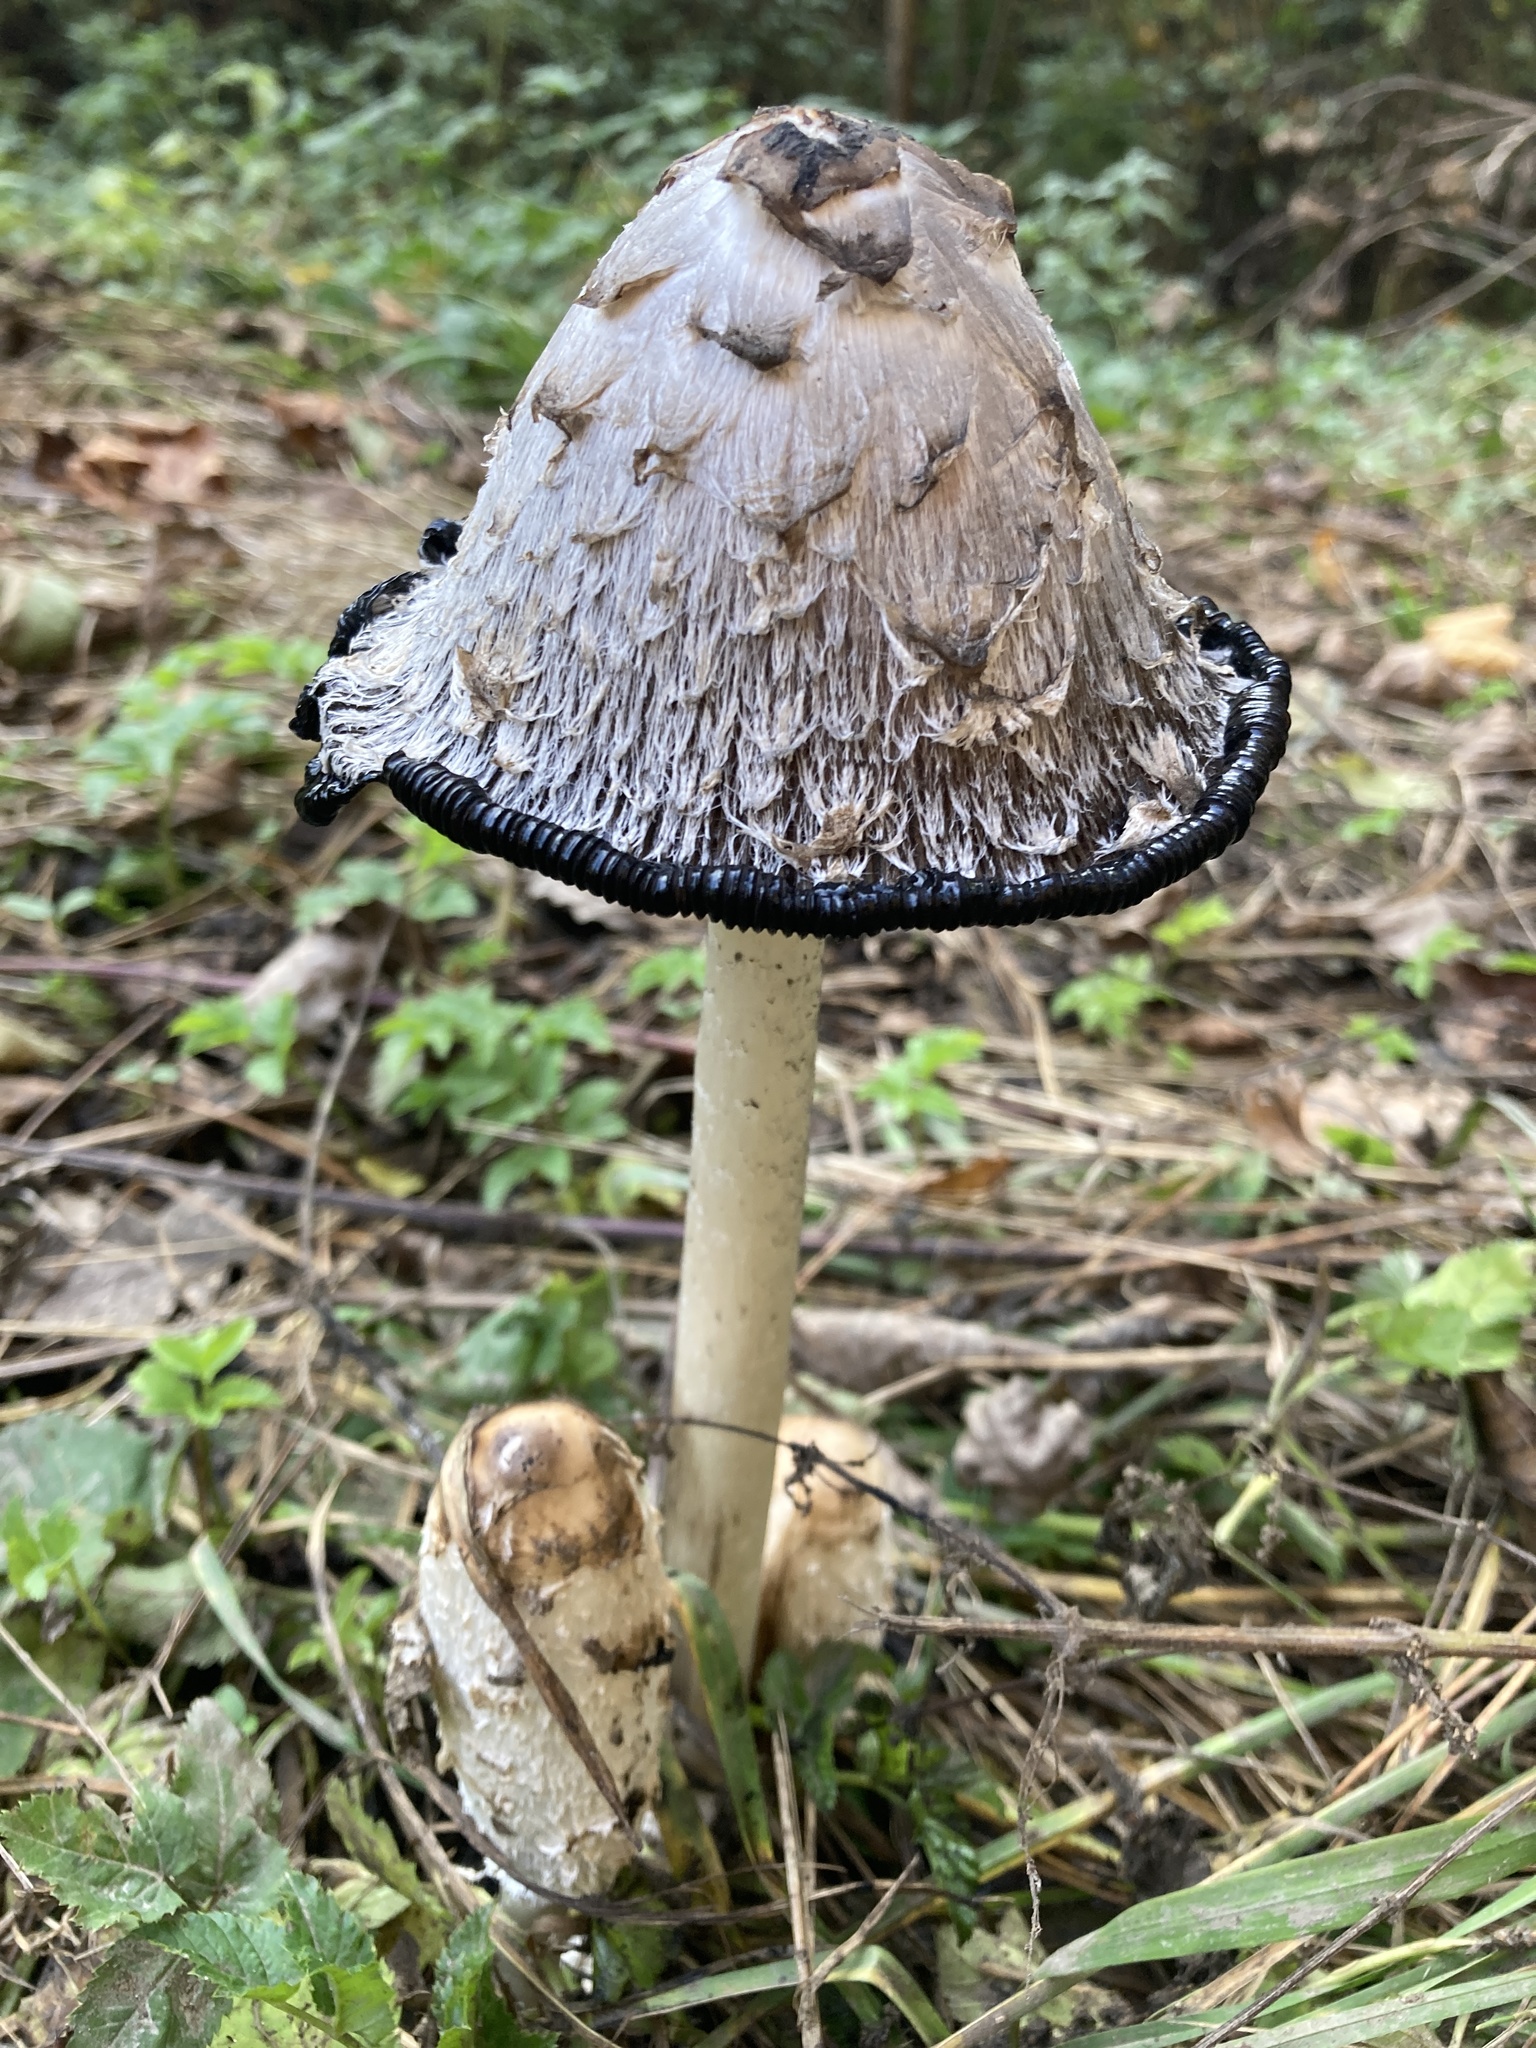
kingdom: Fungi
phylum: Basidiomycota
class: Agaricomycetes
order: Agaricales
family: Agaricaceae
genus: Coprinus
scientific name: Coprinus comatus
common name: Lawyer's wig
